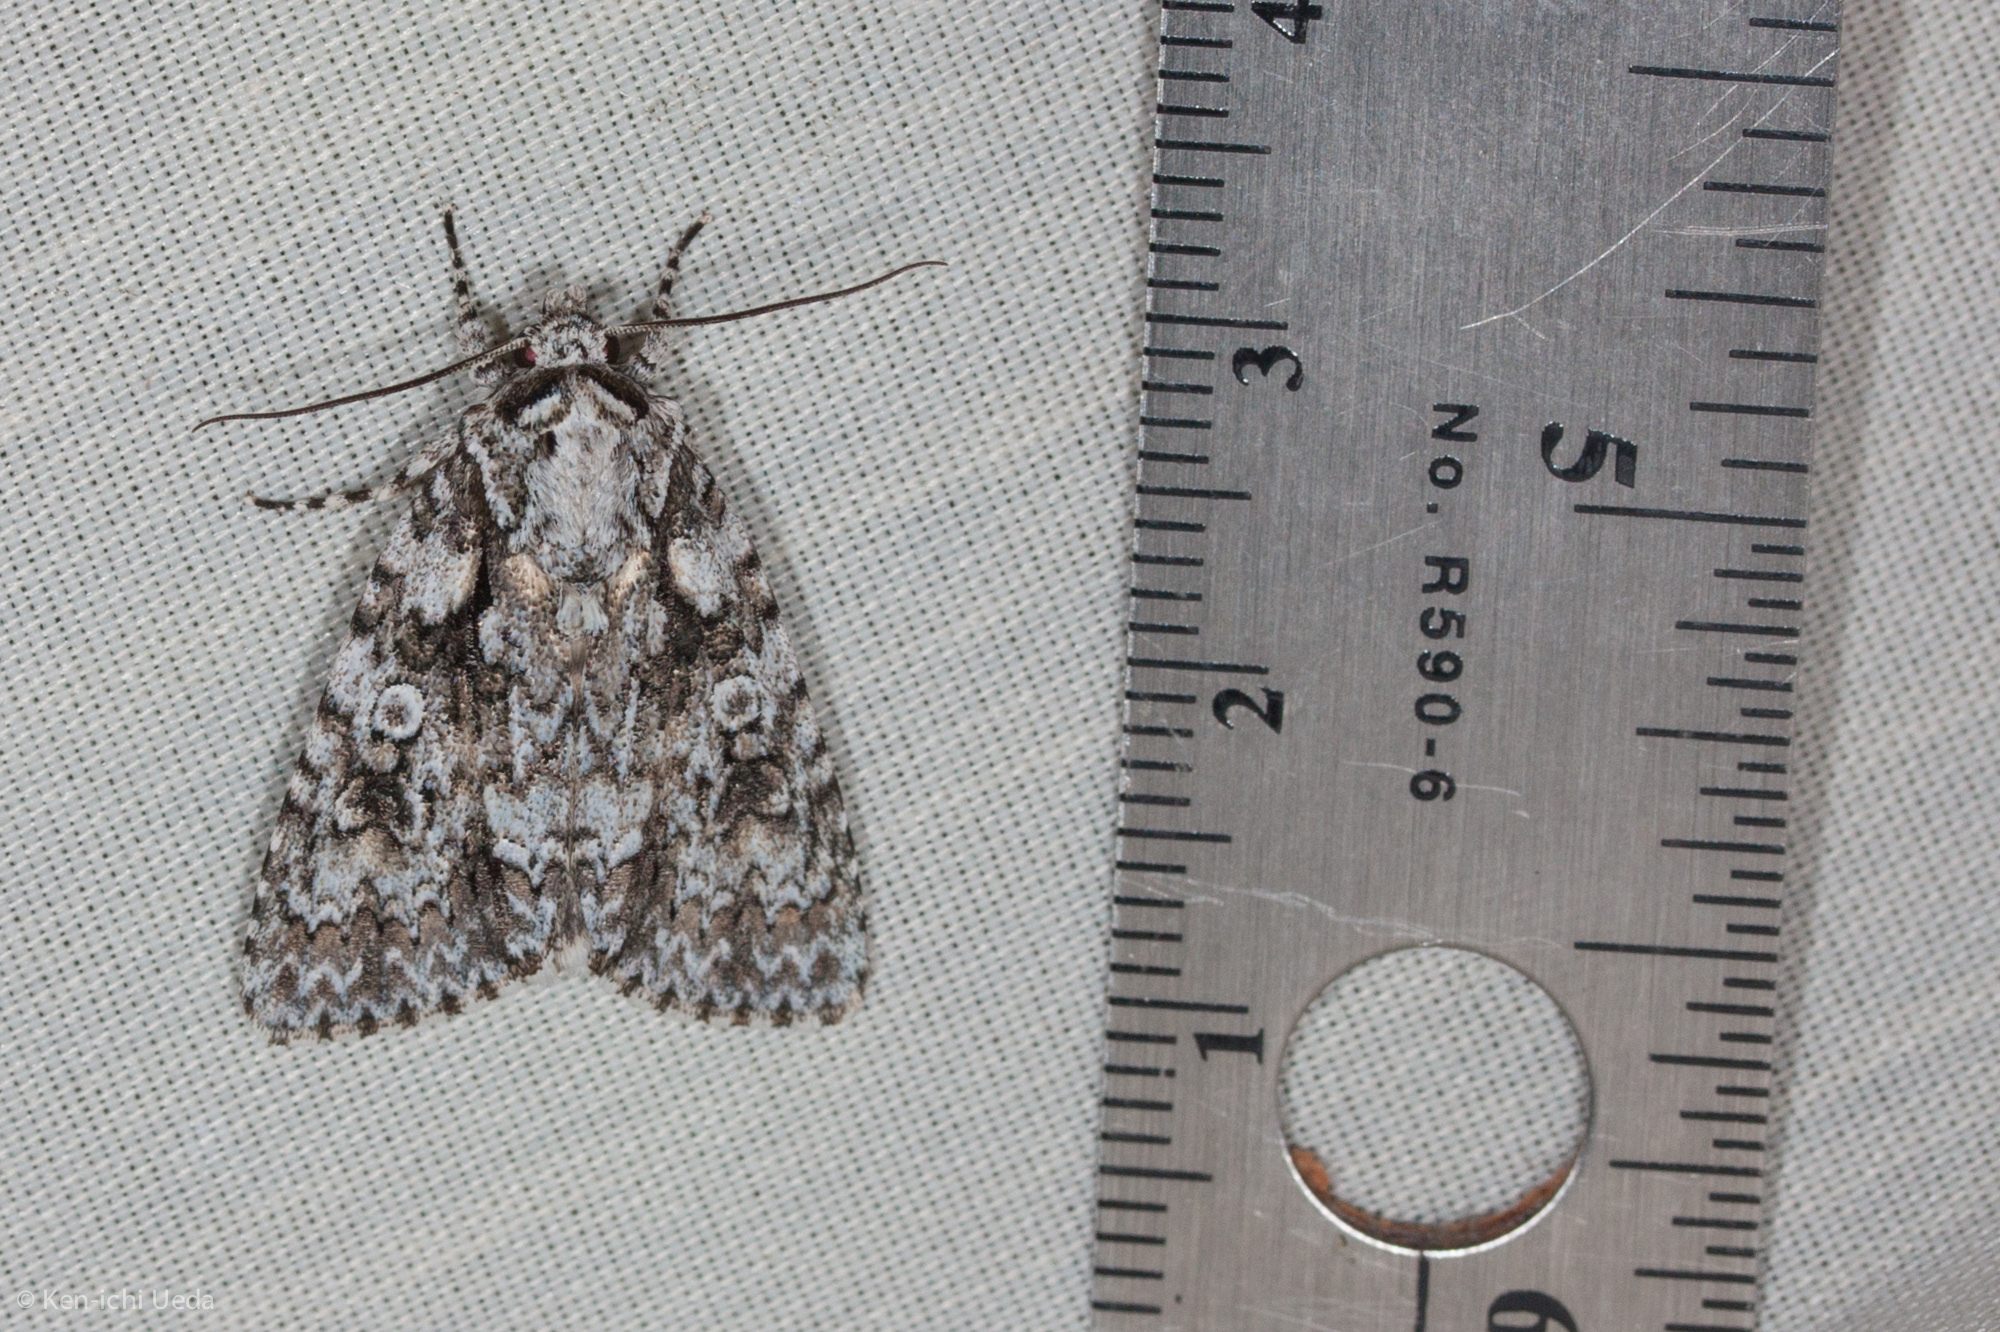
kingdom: Animalia
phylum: Arthropoda
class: Insecta
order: Lepidoptera
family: Noctuidae
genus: Acronicta
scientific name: Acronicta marmorata
